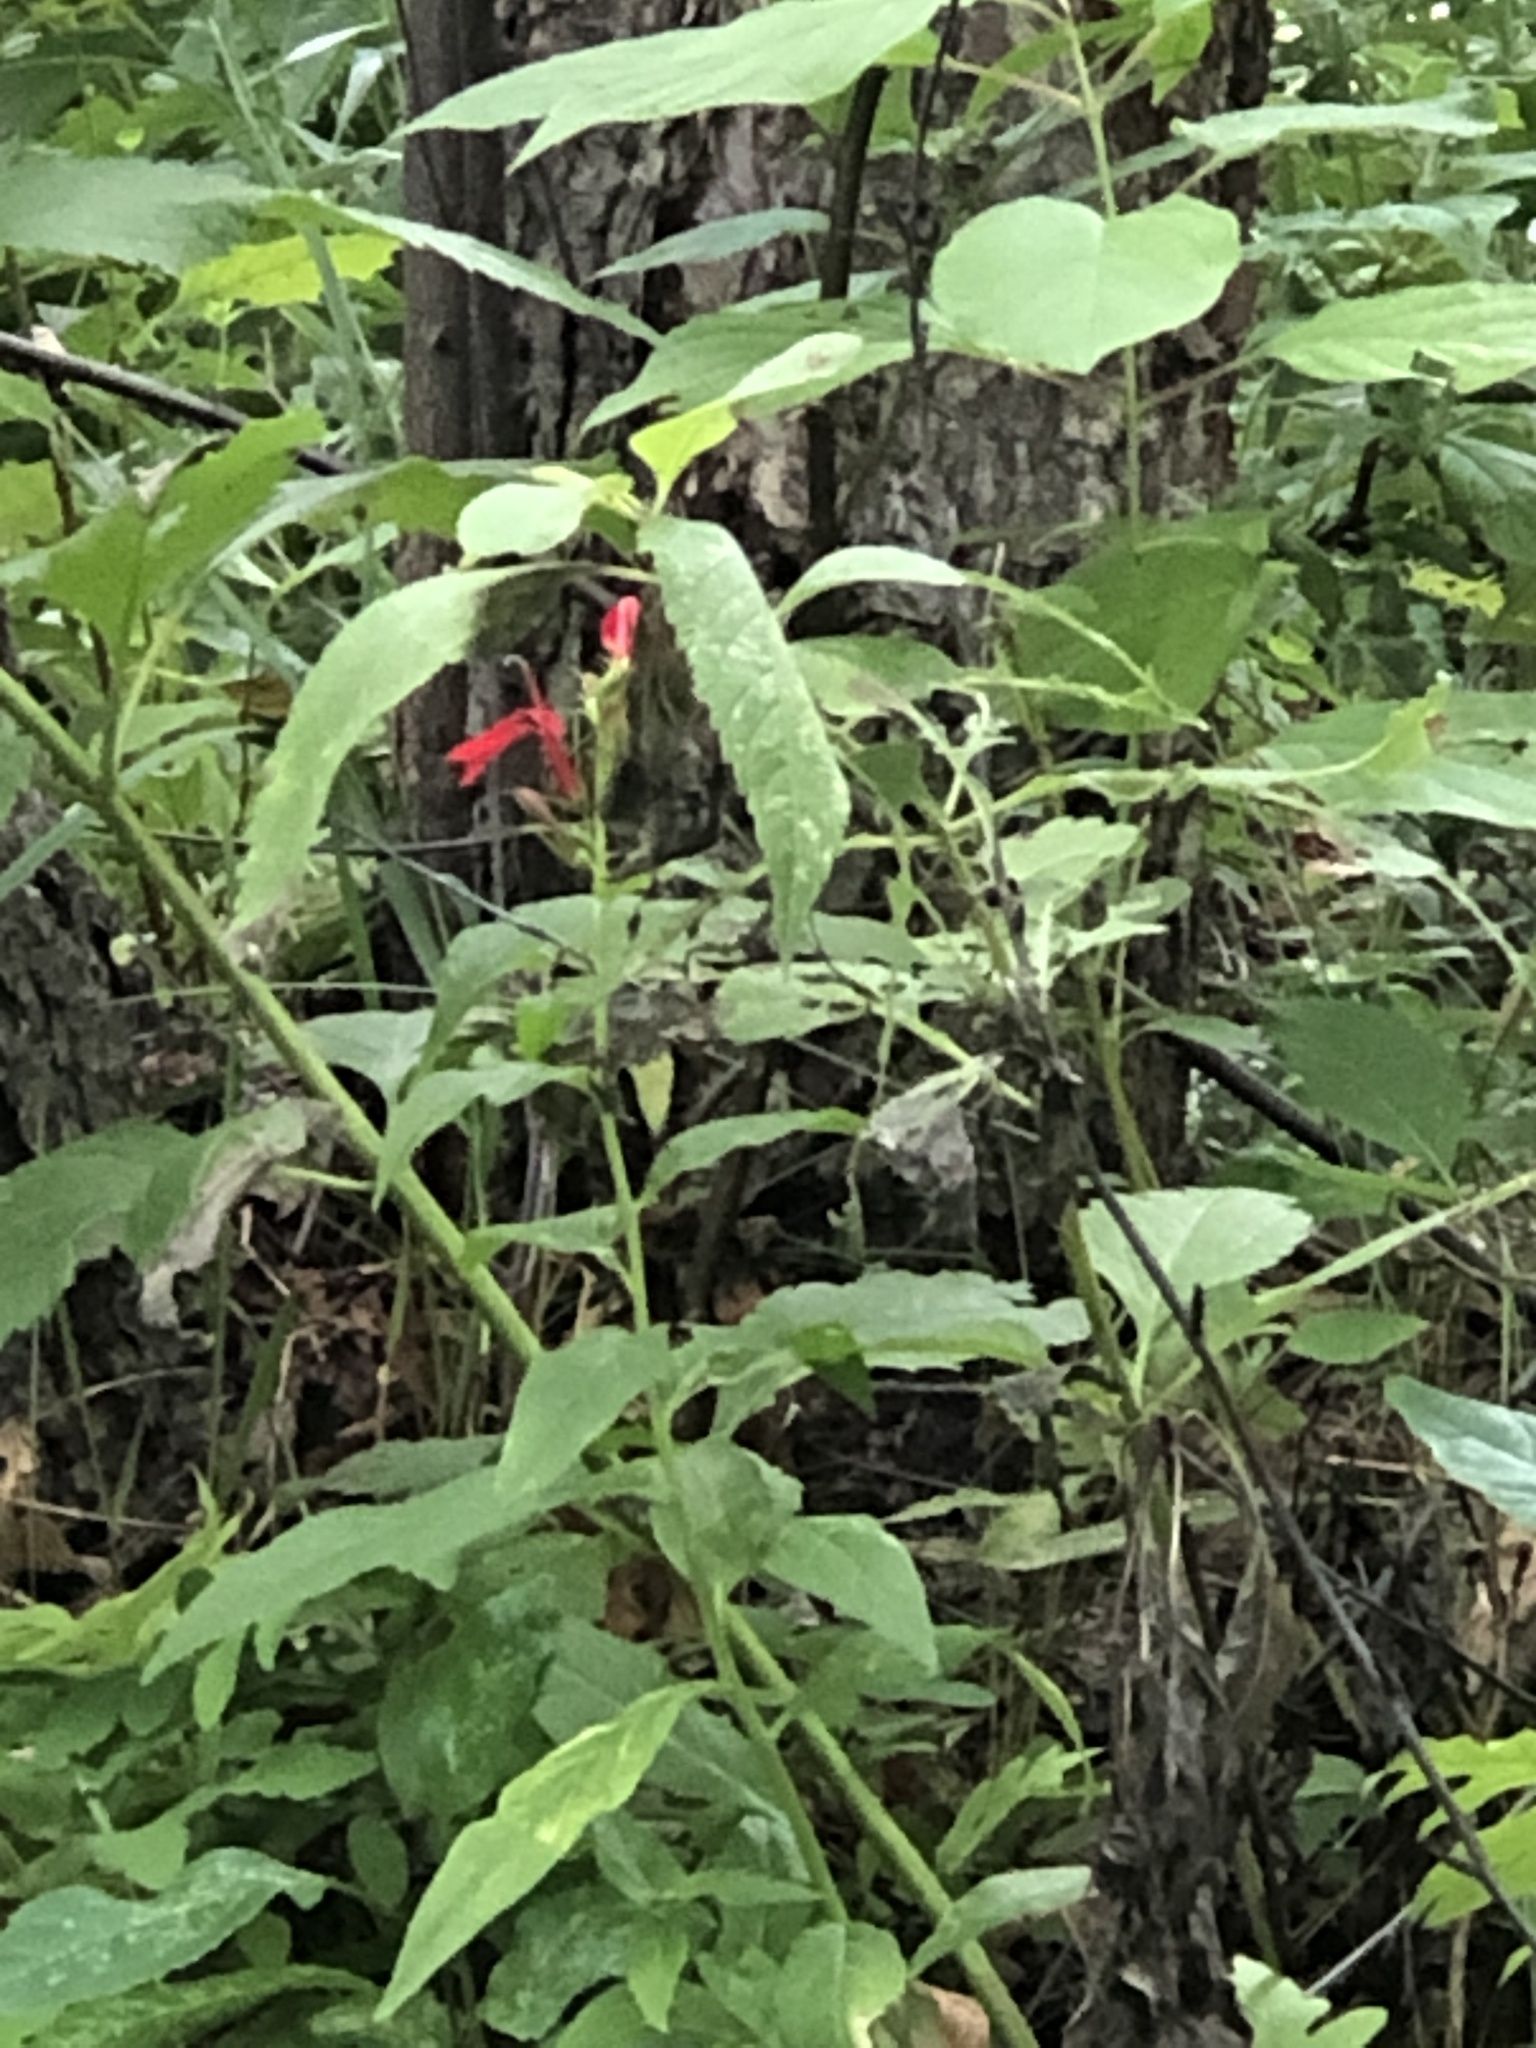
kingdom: Plantae
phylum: Tracheophyta
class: Magnoliopsida
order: Asterales
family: Campanulaceae
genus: Lobelia
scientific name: Lobelia cardinalis
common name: Cardinal flower
